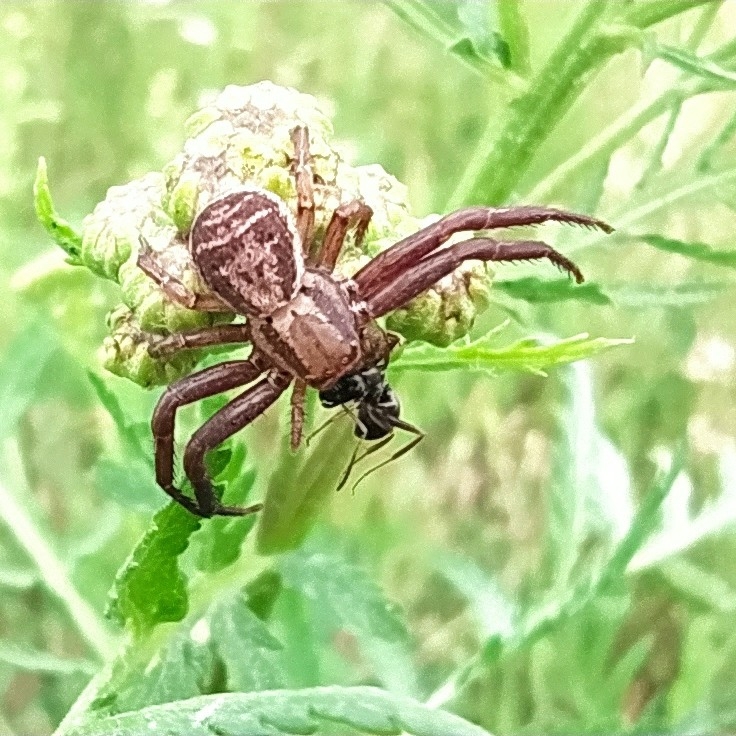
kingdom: Animalia
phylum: Arthropoda
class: Arachnida
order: Araneae
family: Thomisidae
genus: Xysticus
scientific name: Xysticus ulmi
